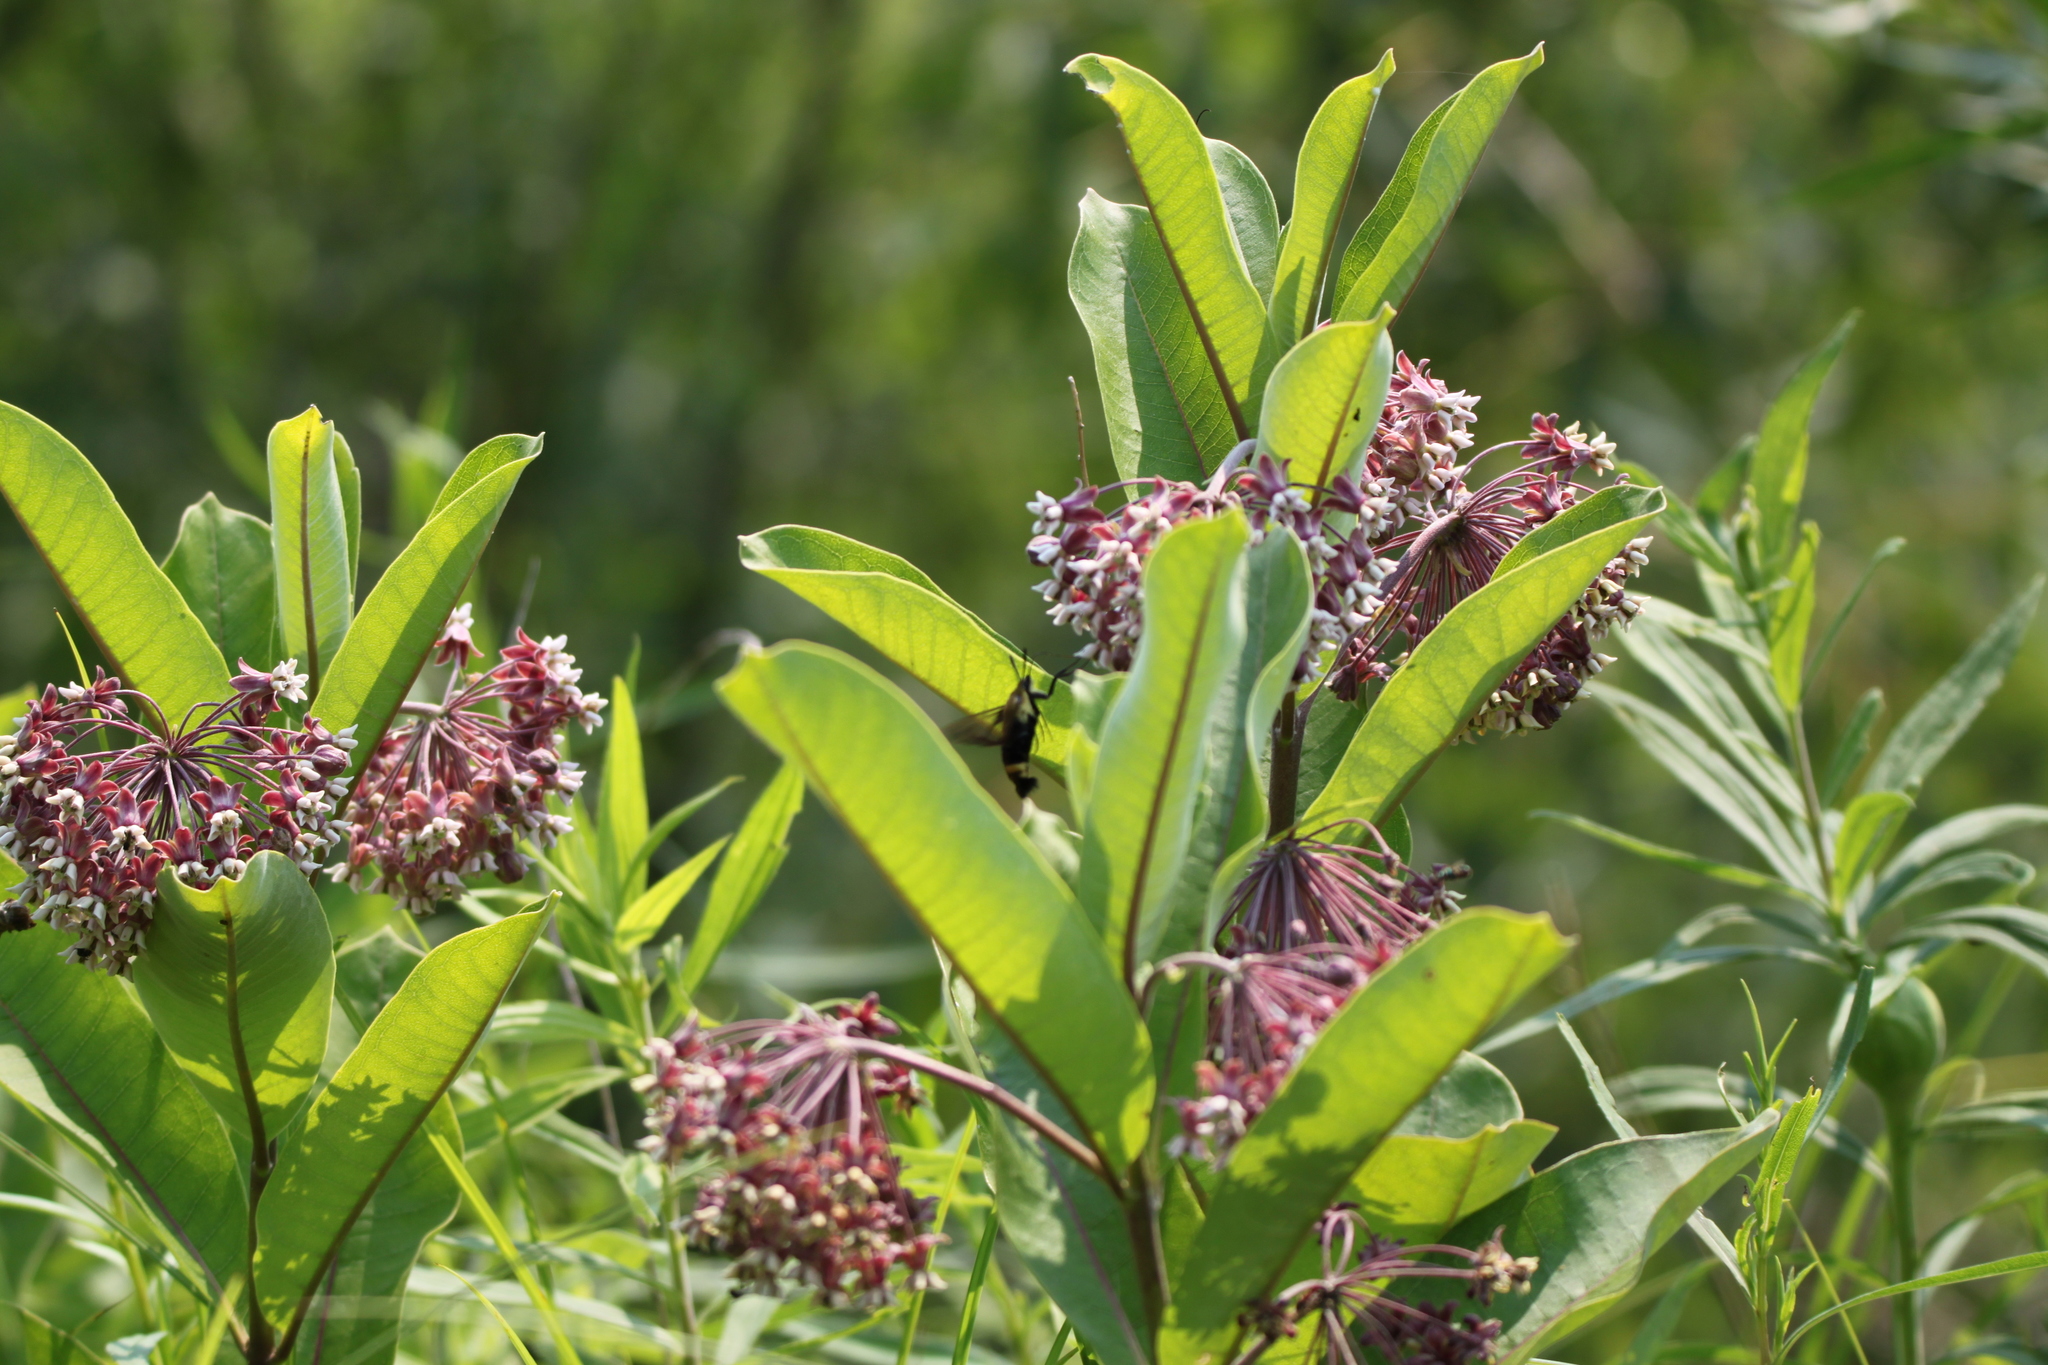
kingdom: Animalia
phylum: Arthropoda
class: Insecta
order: Lepidoptera
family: Sphingidae
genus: Hemaris
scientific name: Hemaris diffinis
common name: Bumblebee moth
